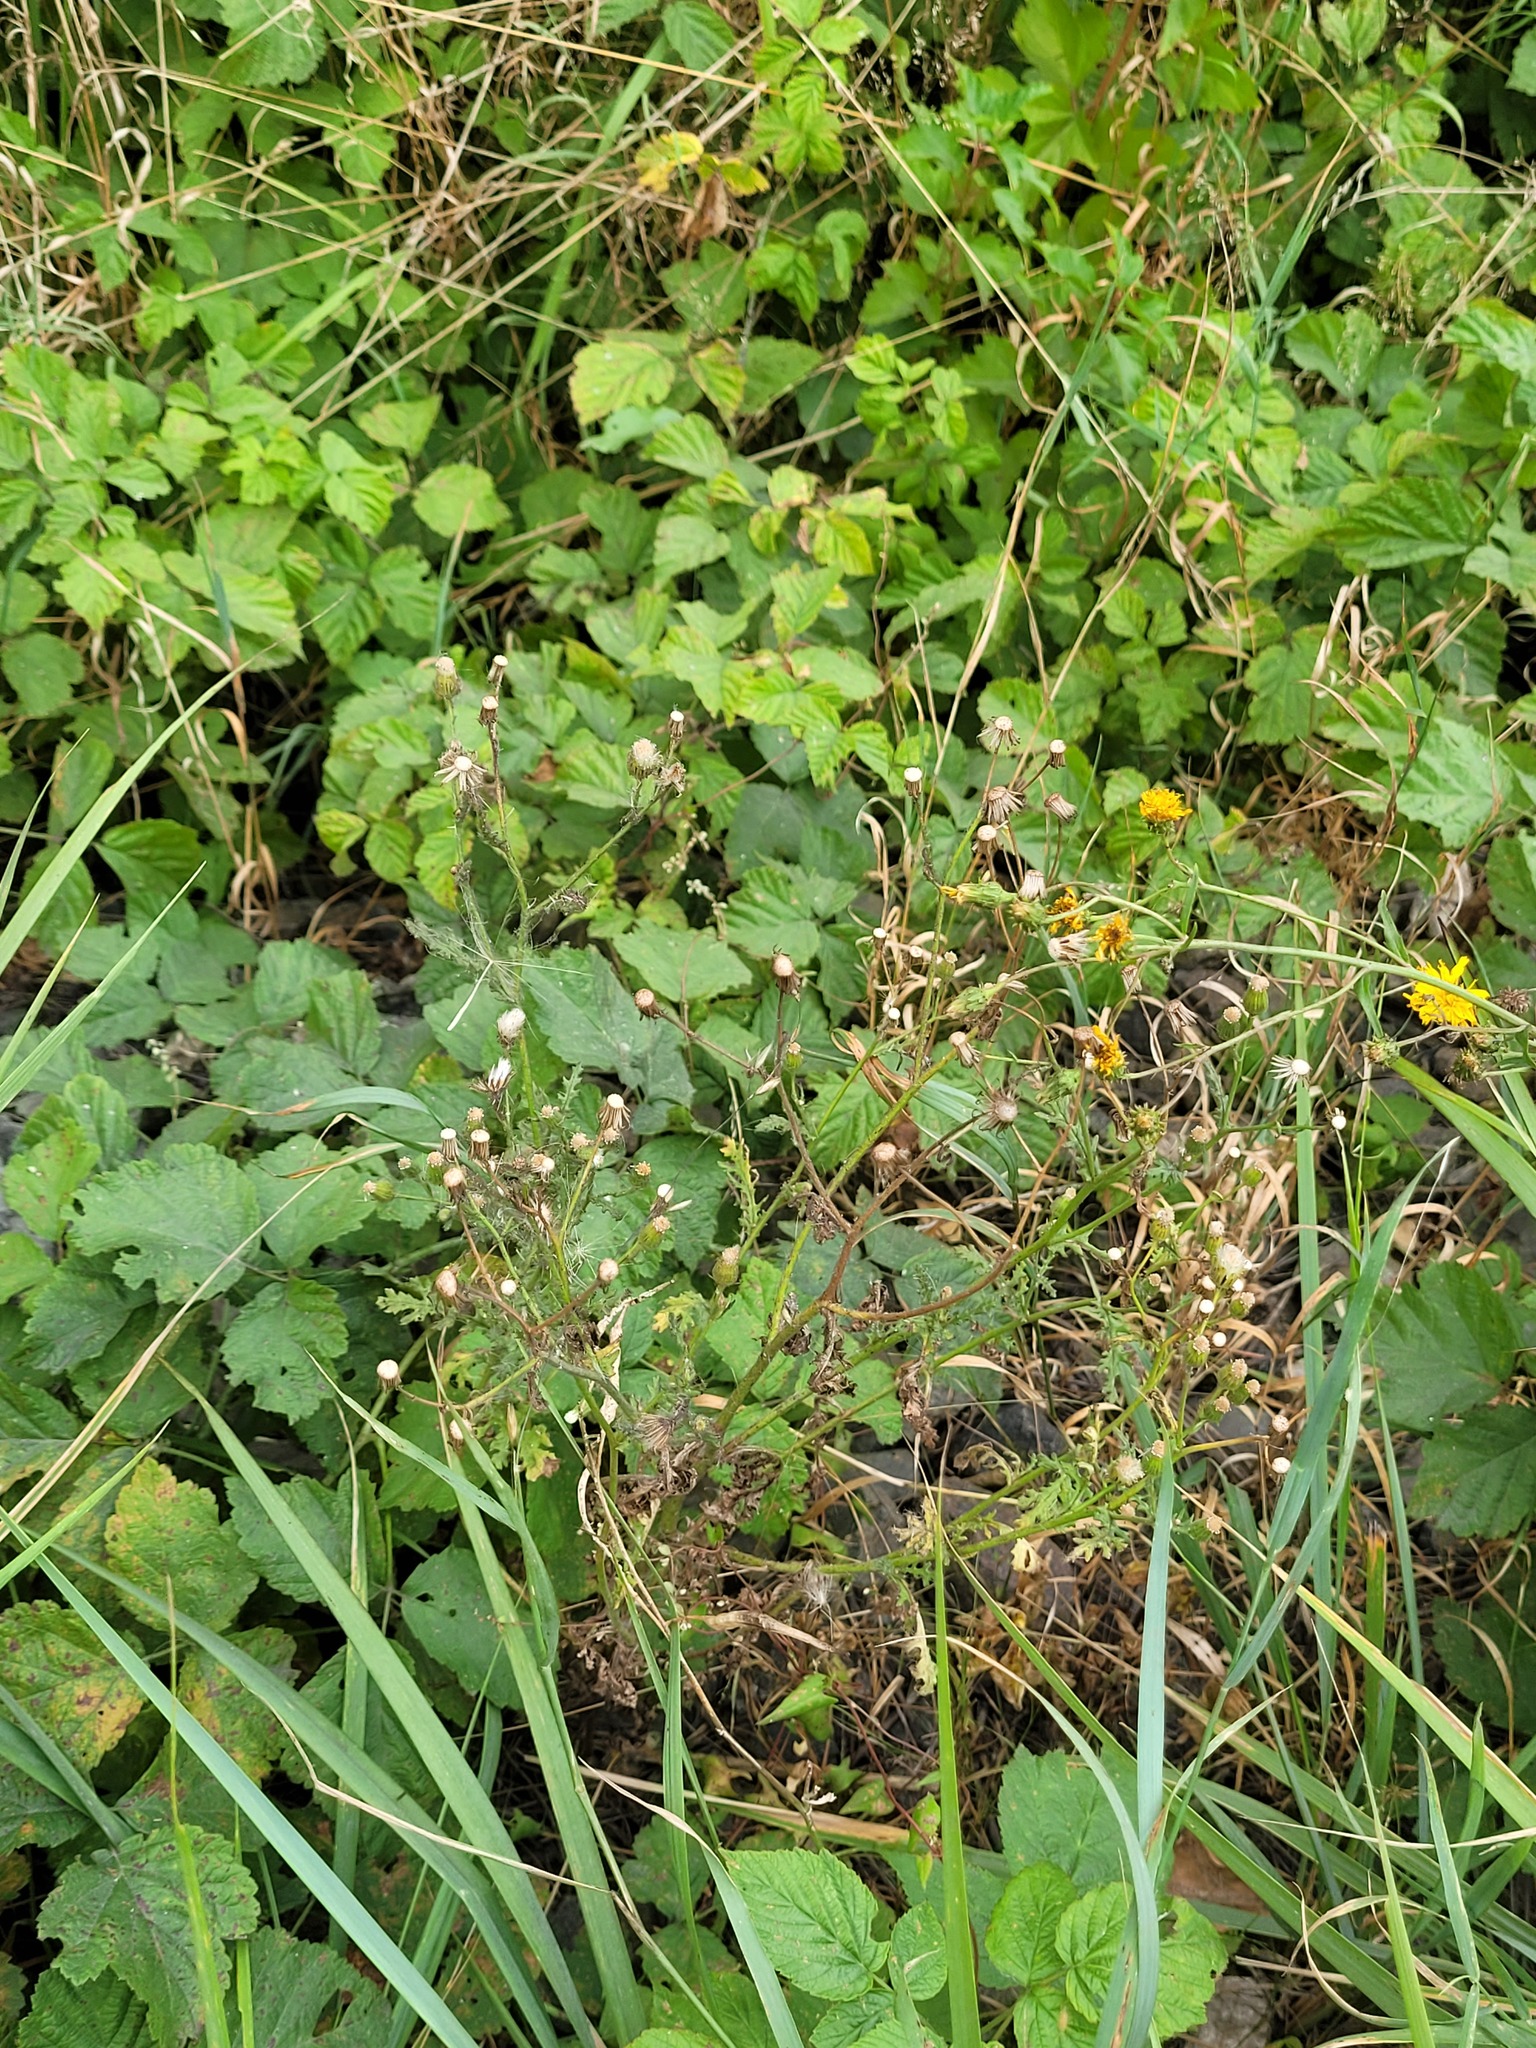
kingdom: Plantae
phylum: Tracheophyta
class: Magnoliopsida
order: Asterales
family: Asteraceae
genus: Senecio
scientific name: Senecio viscosus
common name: Sticky groundsel
